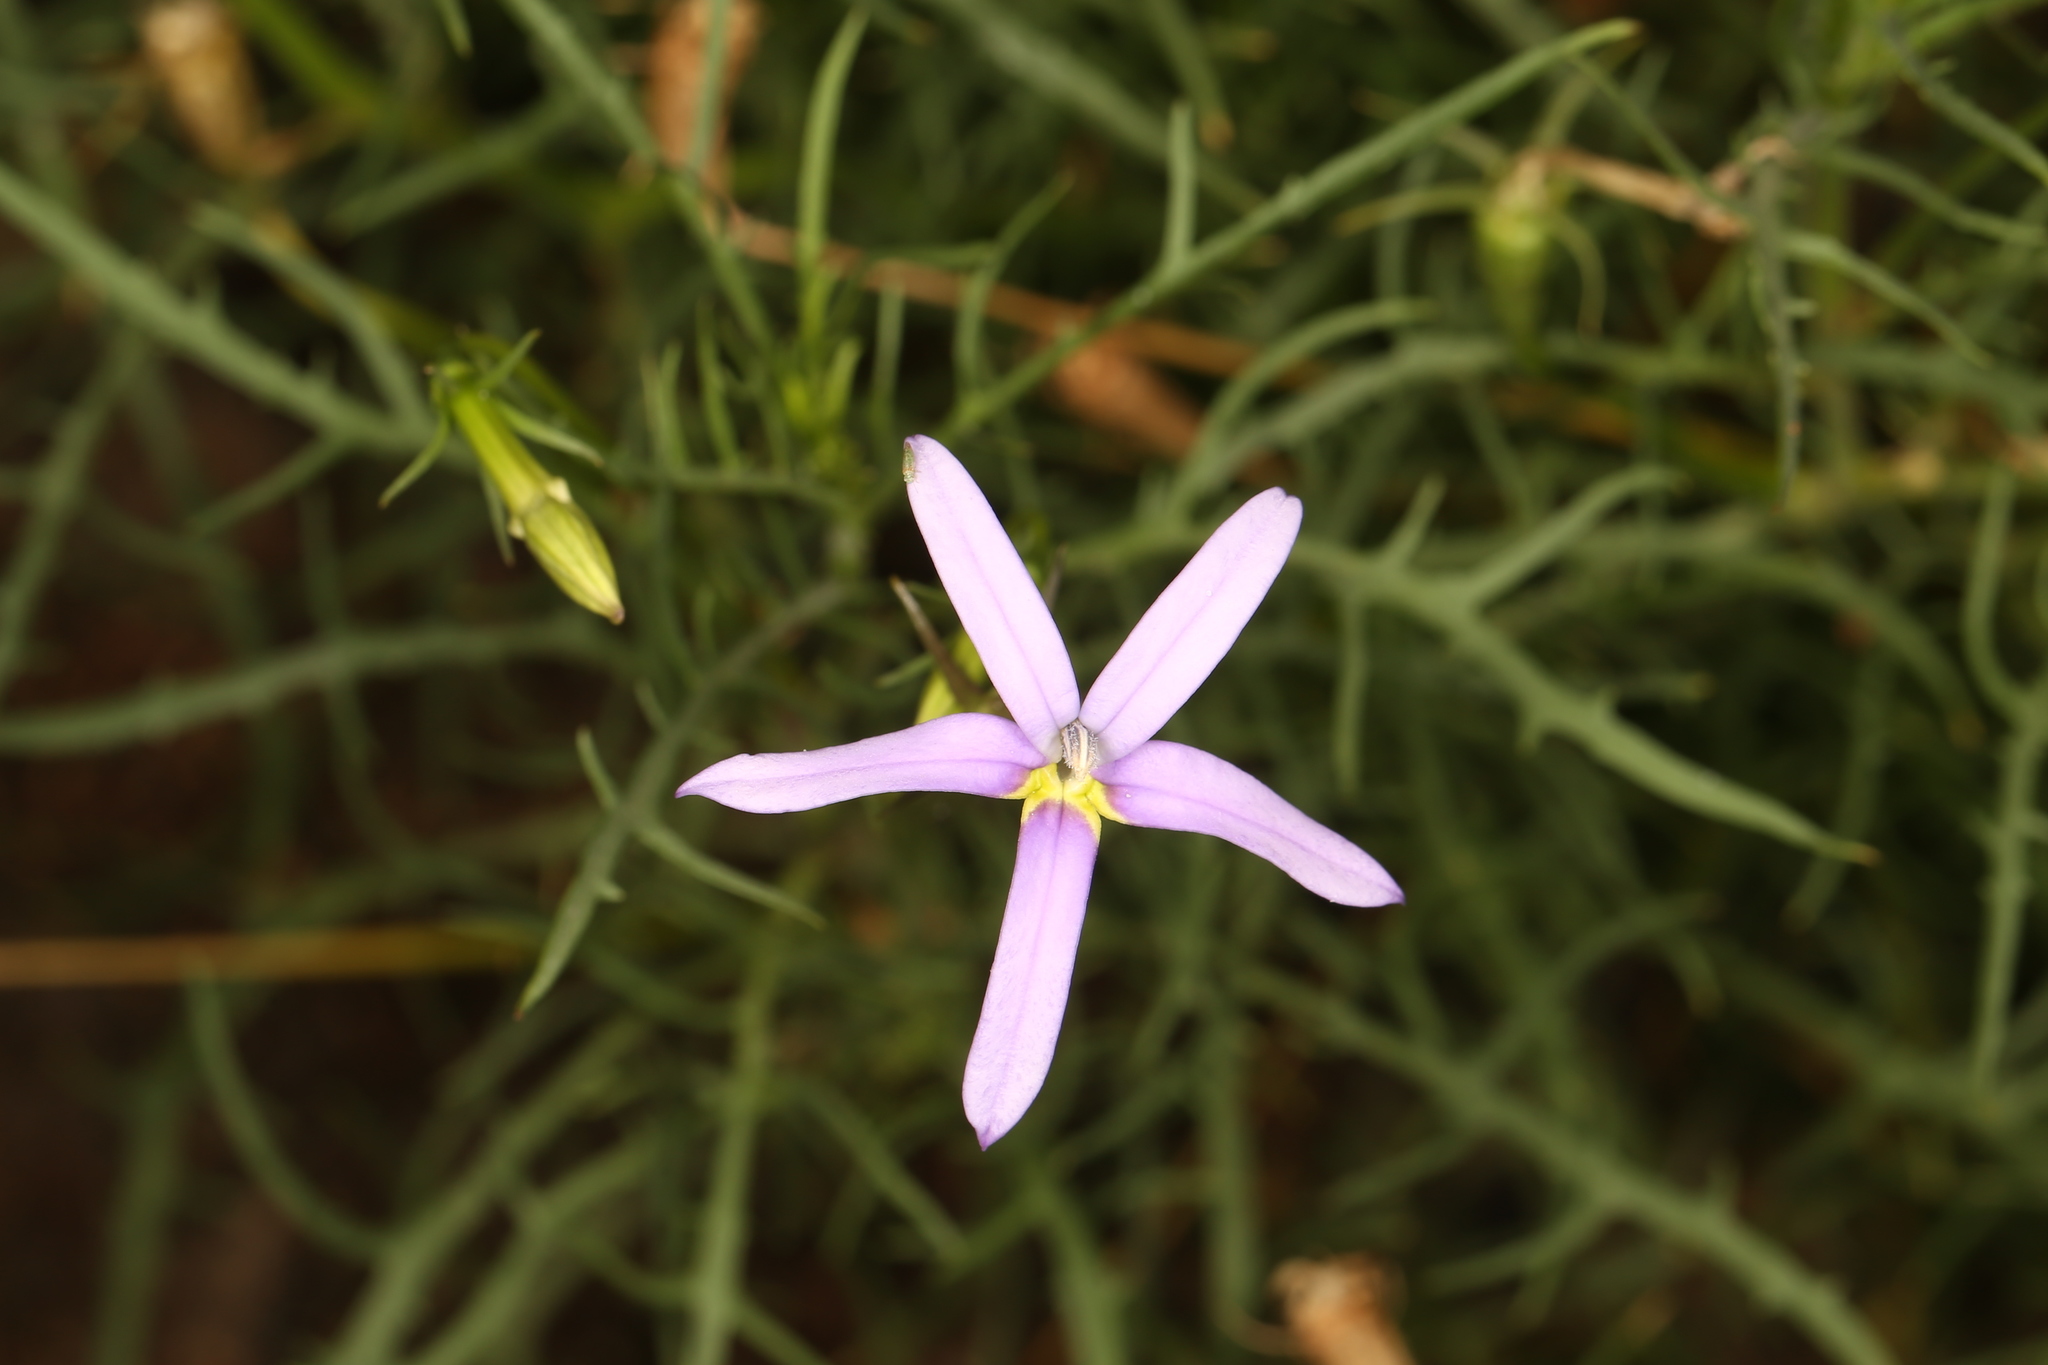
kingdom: Plantae
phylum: Tracheophyta
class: Magnoliopsida
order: Asterales
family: Campanulaceae
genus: Lithotoma
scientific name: Lithotoma axillaris
